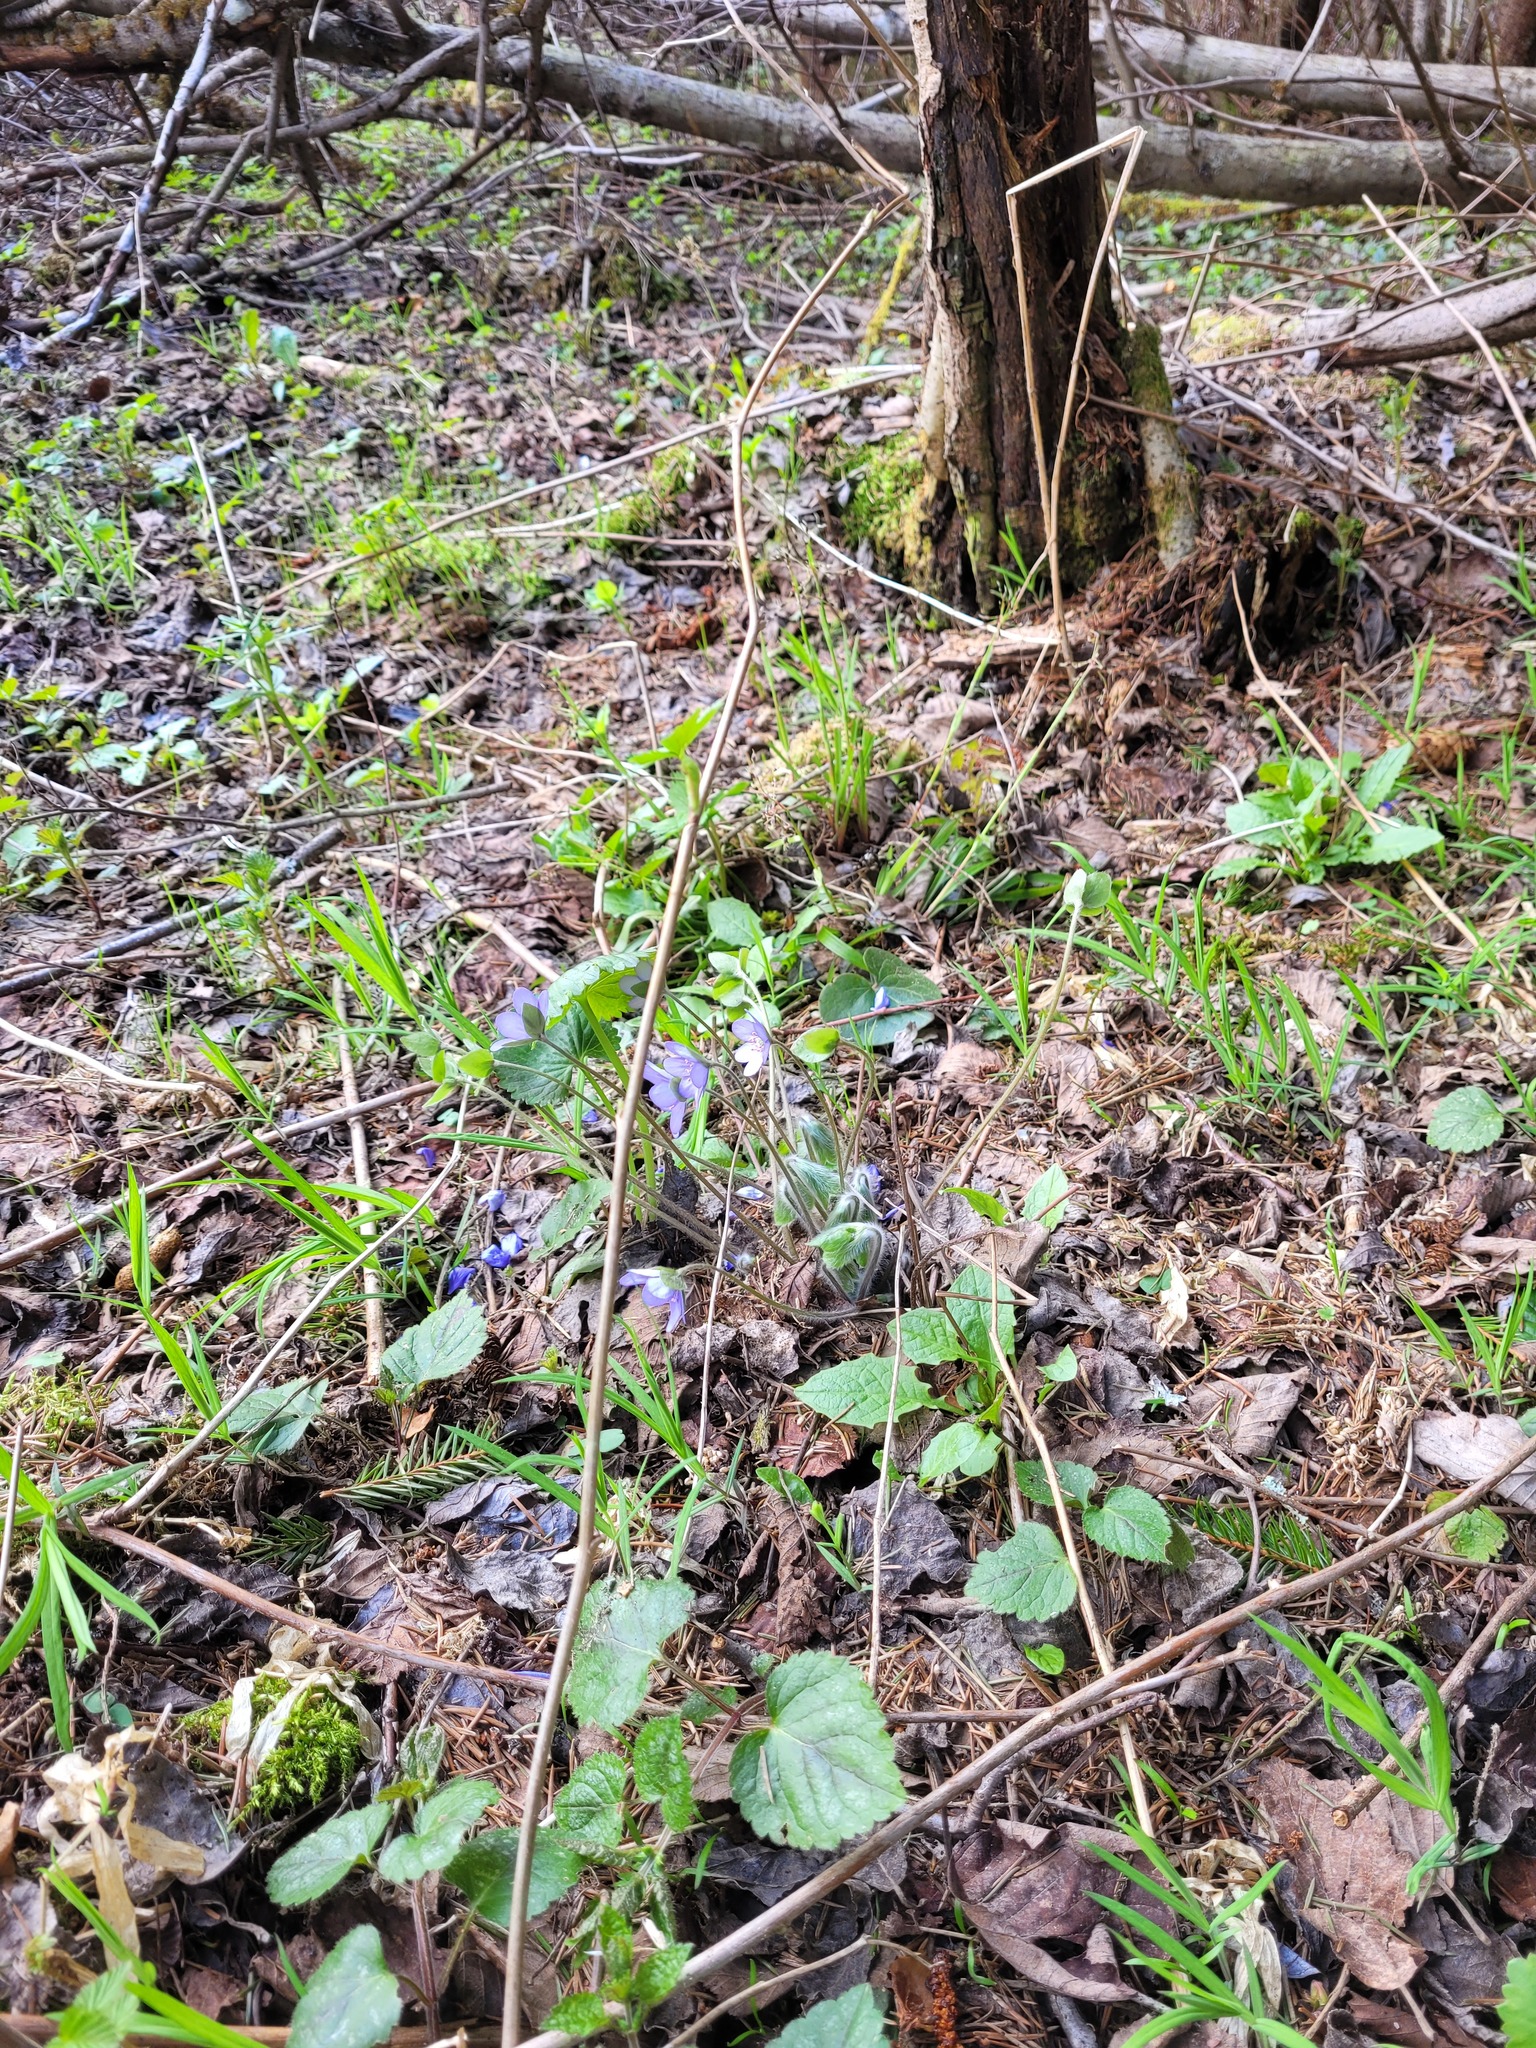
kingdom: Plantae
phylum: Tracheophyta
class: Magnoliopsida
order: Ranunculales
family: Ranunculaceae
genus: Hepatica
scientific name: Hepatica nobilis
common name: Liverleaf
